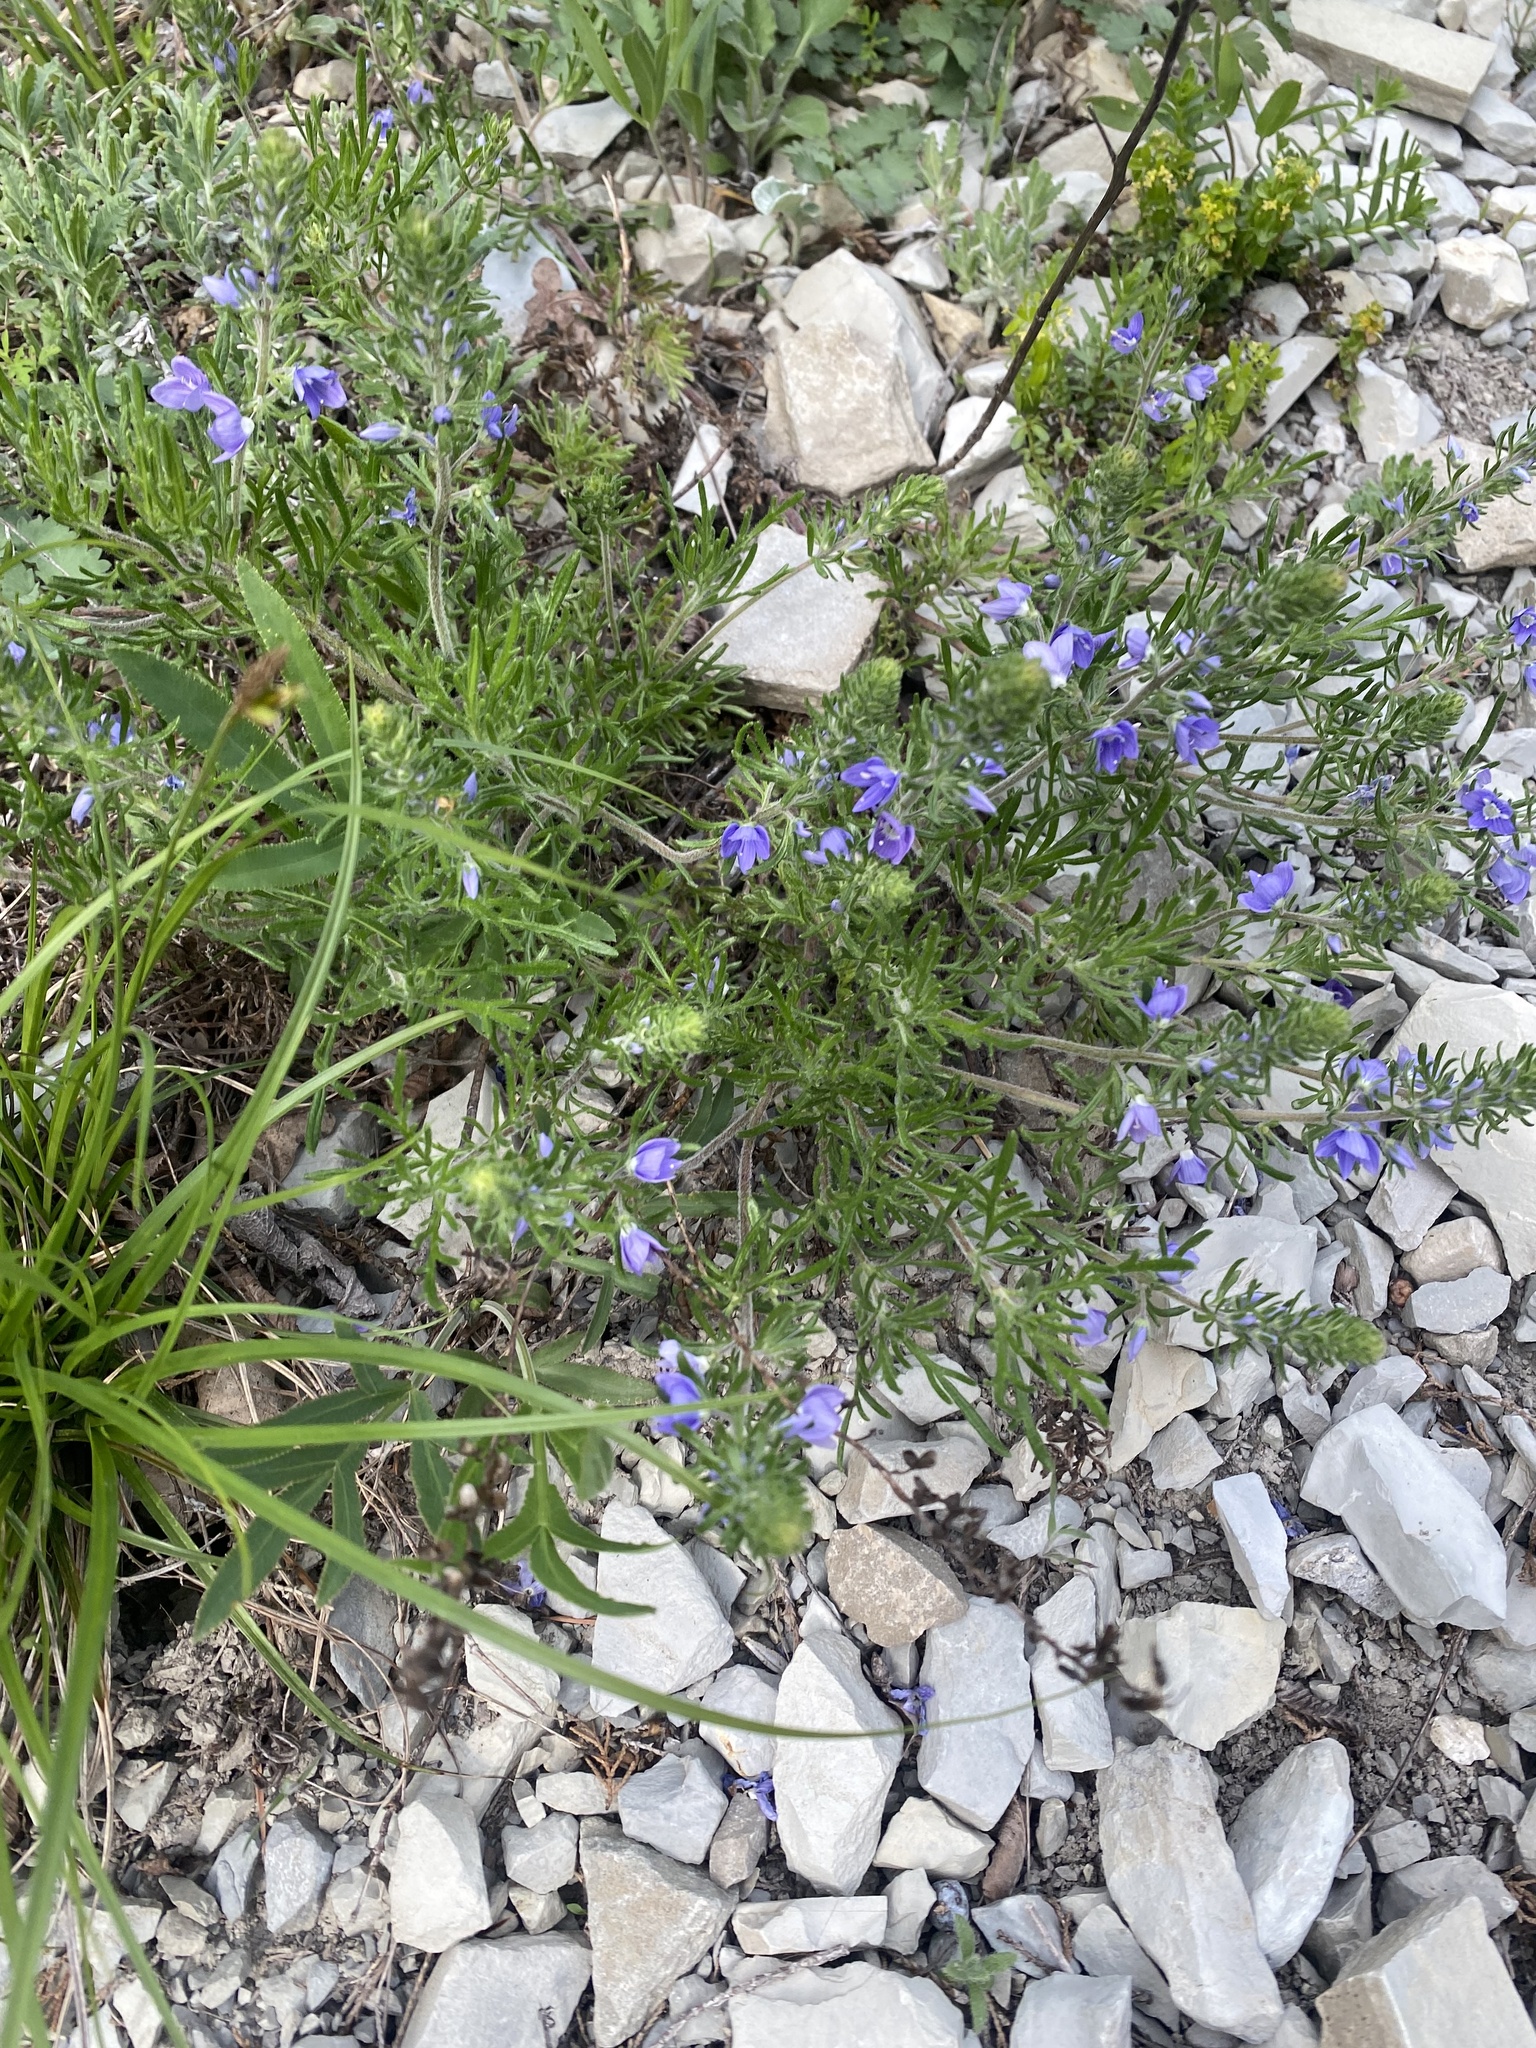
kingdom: Plantae
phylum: Tracheophyta
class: Magnoliopsida
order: Lamiales
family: Plantaginaceae
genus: Veronica
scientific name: Veronica capsellicarpa
